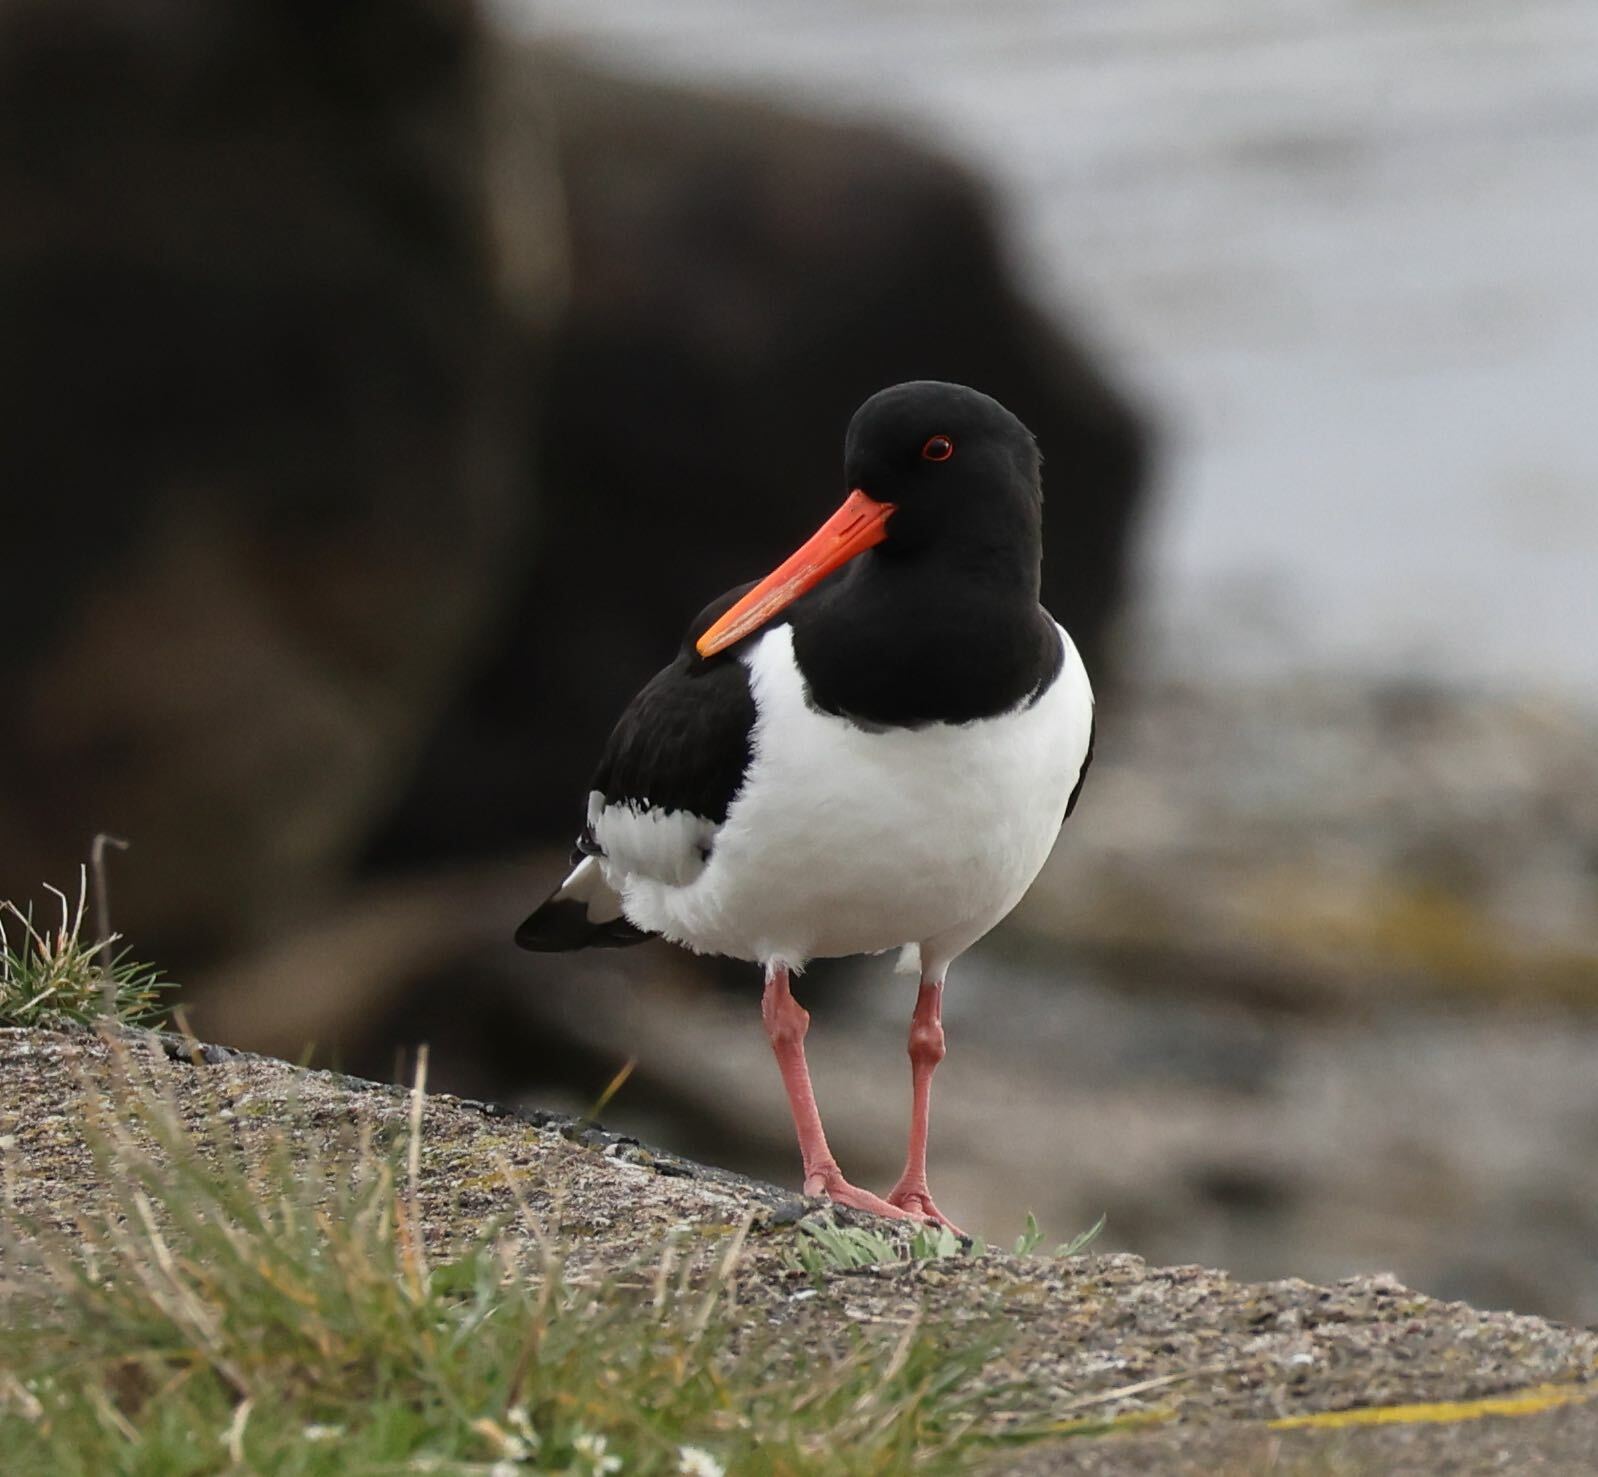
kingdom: Animalia
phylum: Chordata
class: Aves
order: Charadriiformes
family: Haematopodidae
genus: Haematopus
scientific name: Haematopus ostralegus
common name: Eurasian oystercatcher
